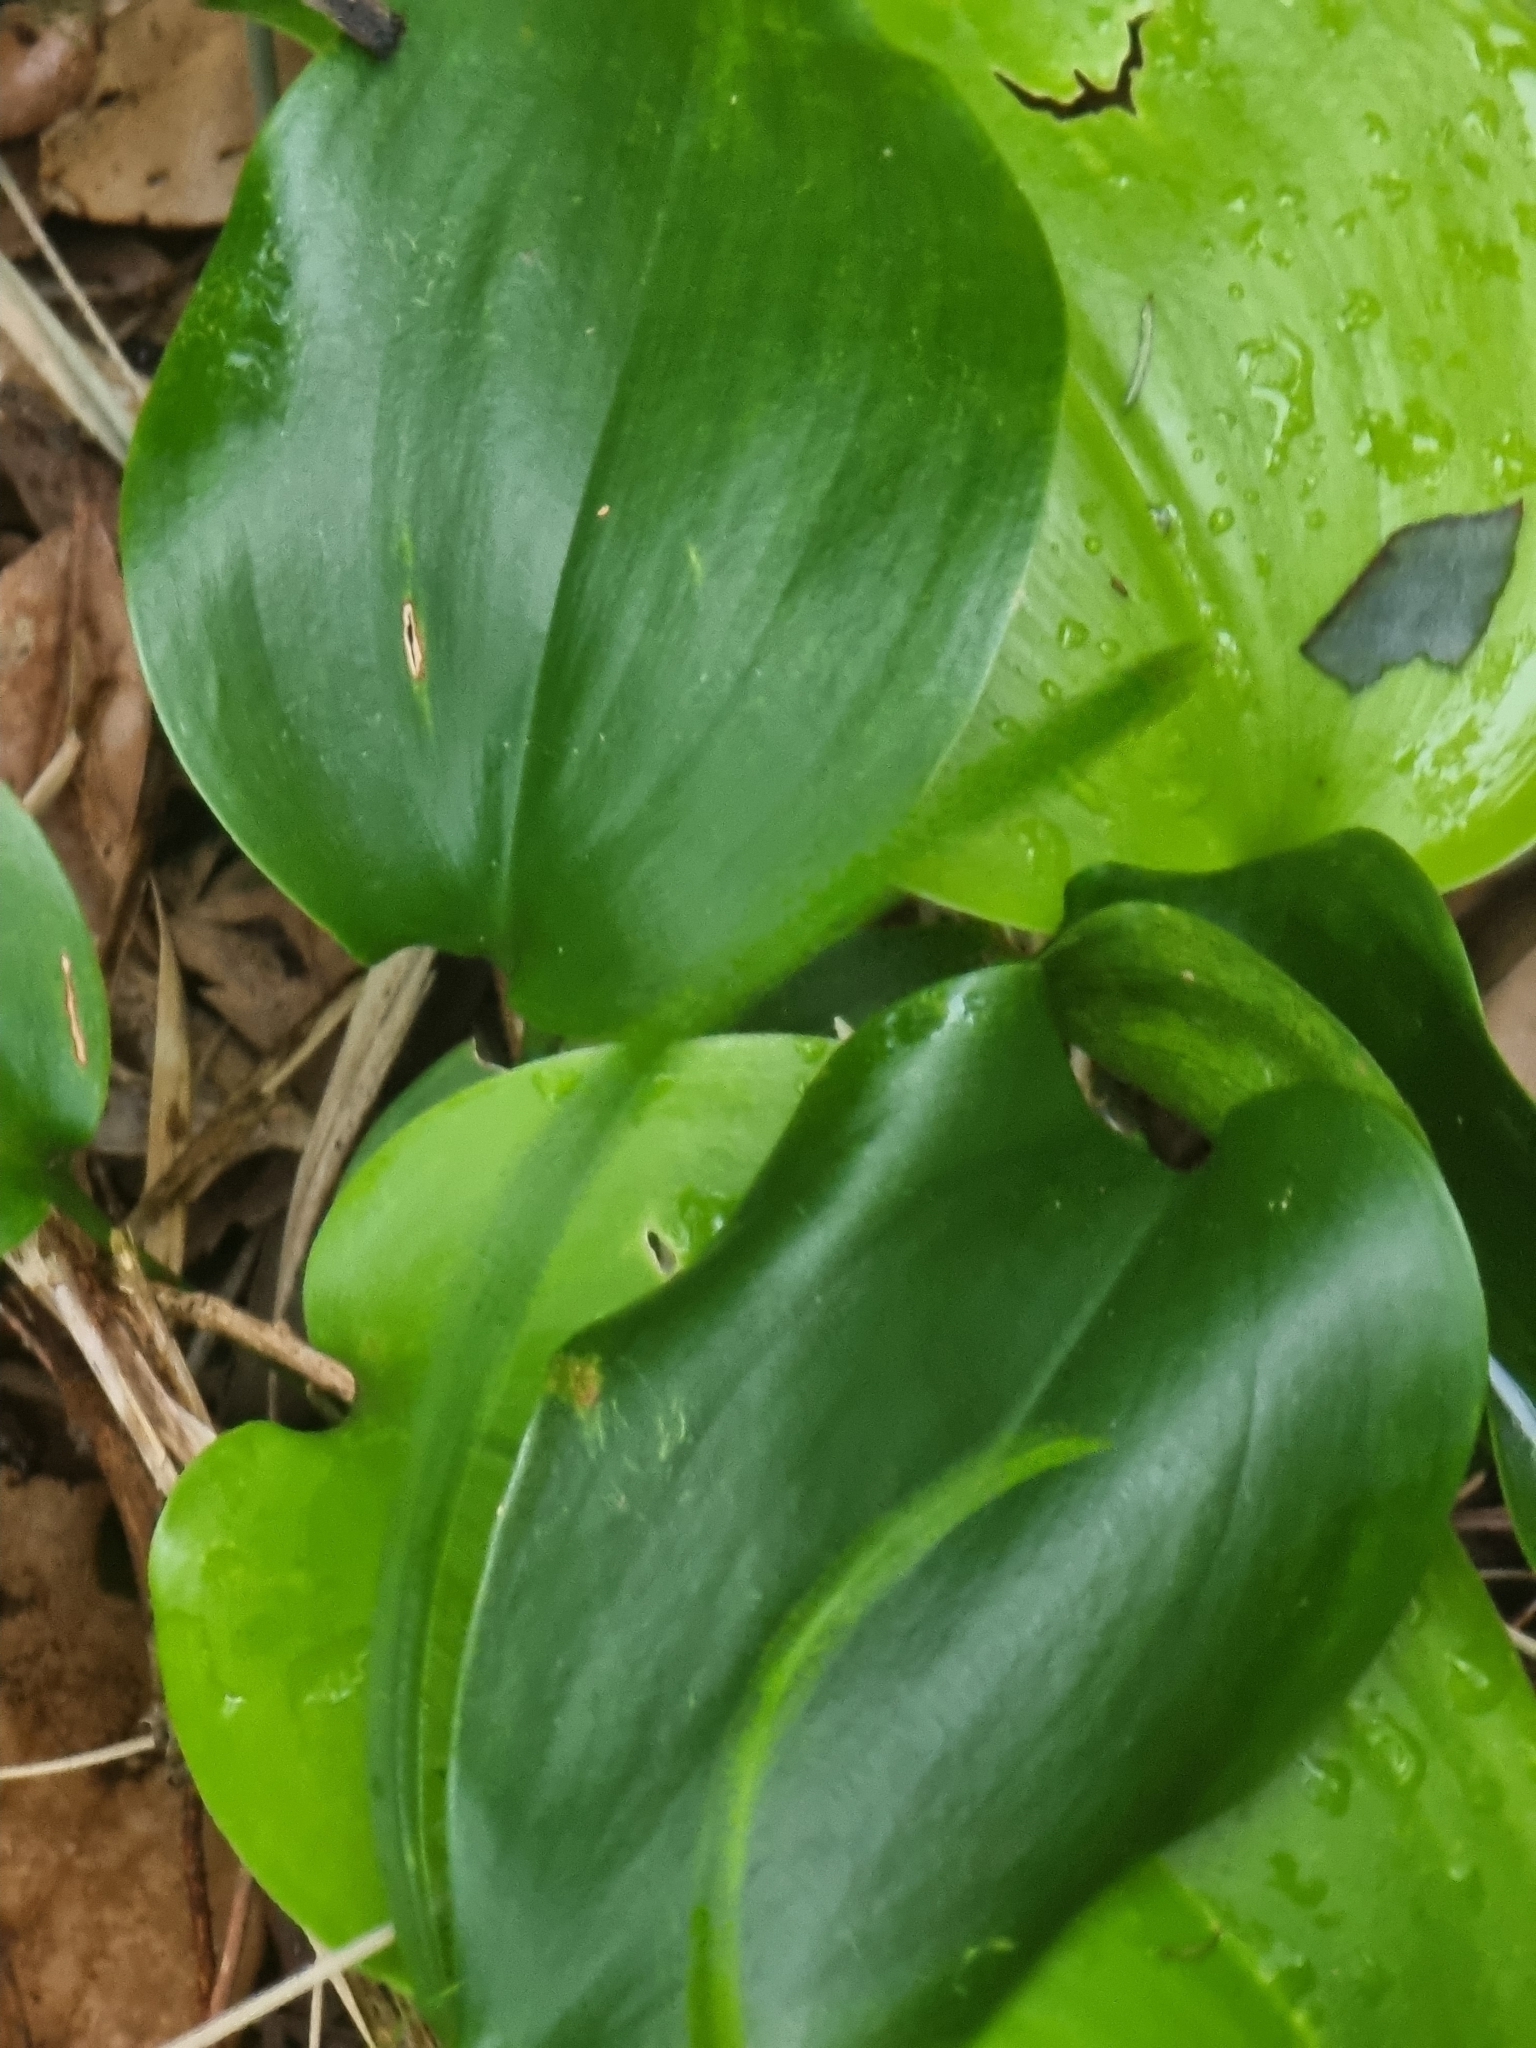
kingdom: Plantae
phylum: Tracheophyta
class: Liliopsida
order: Asparagales
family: Asparagaceae
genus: Semele
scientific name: Semele androgyna
